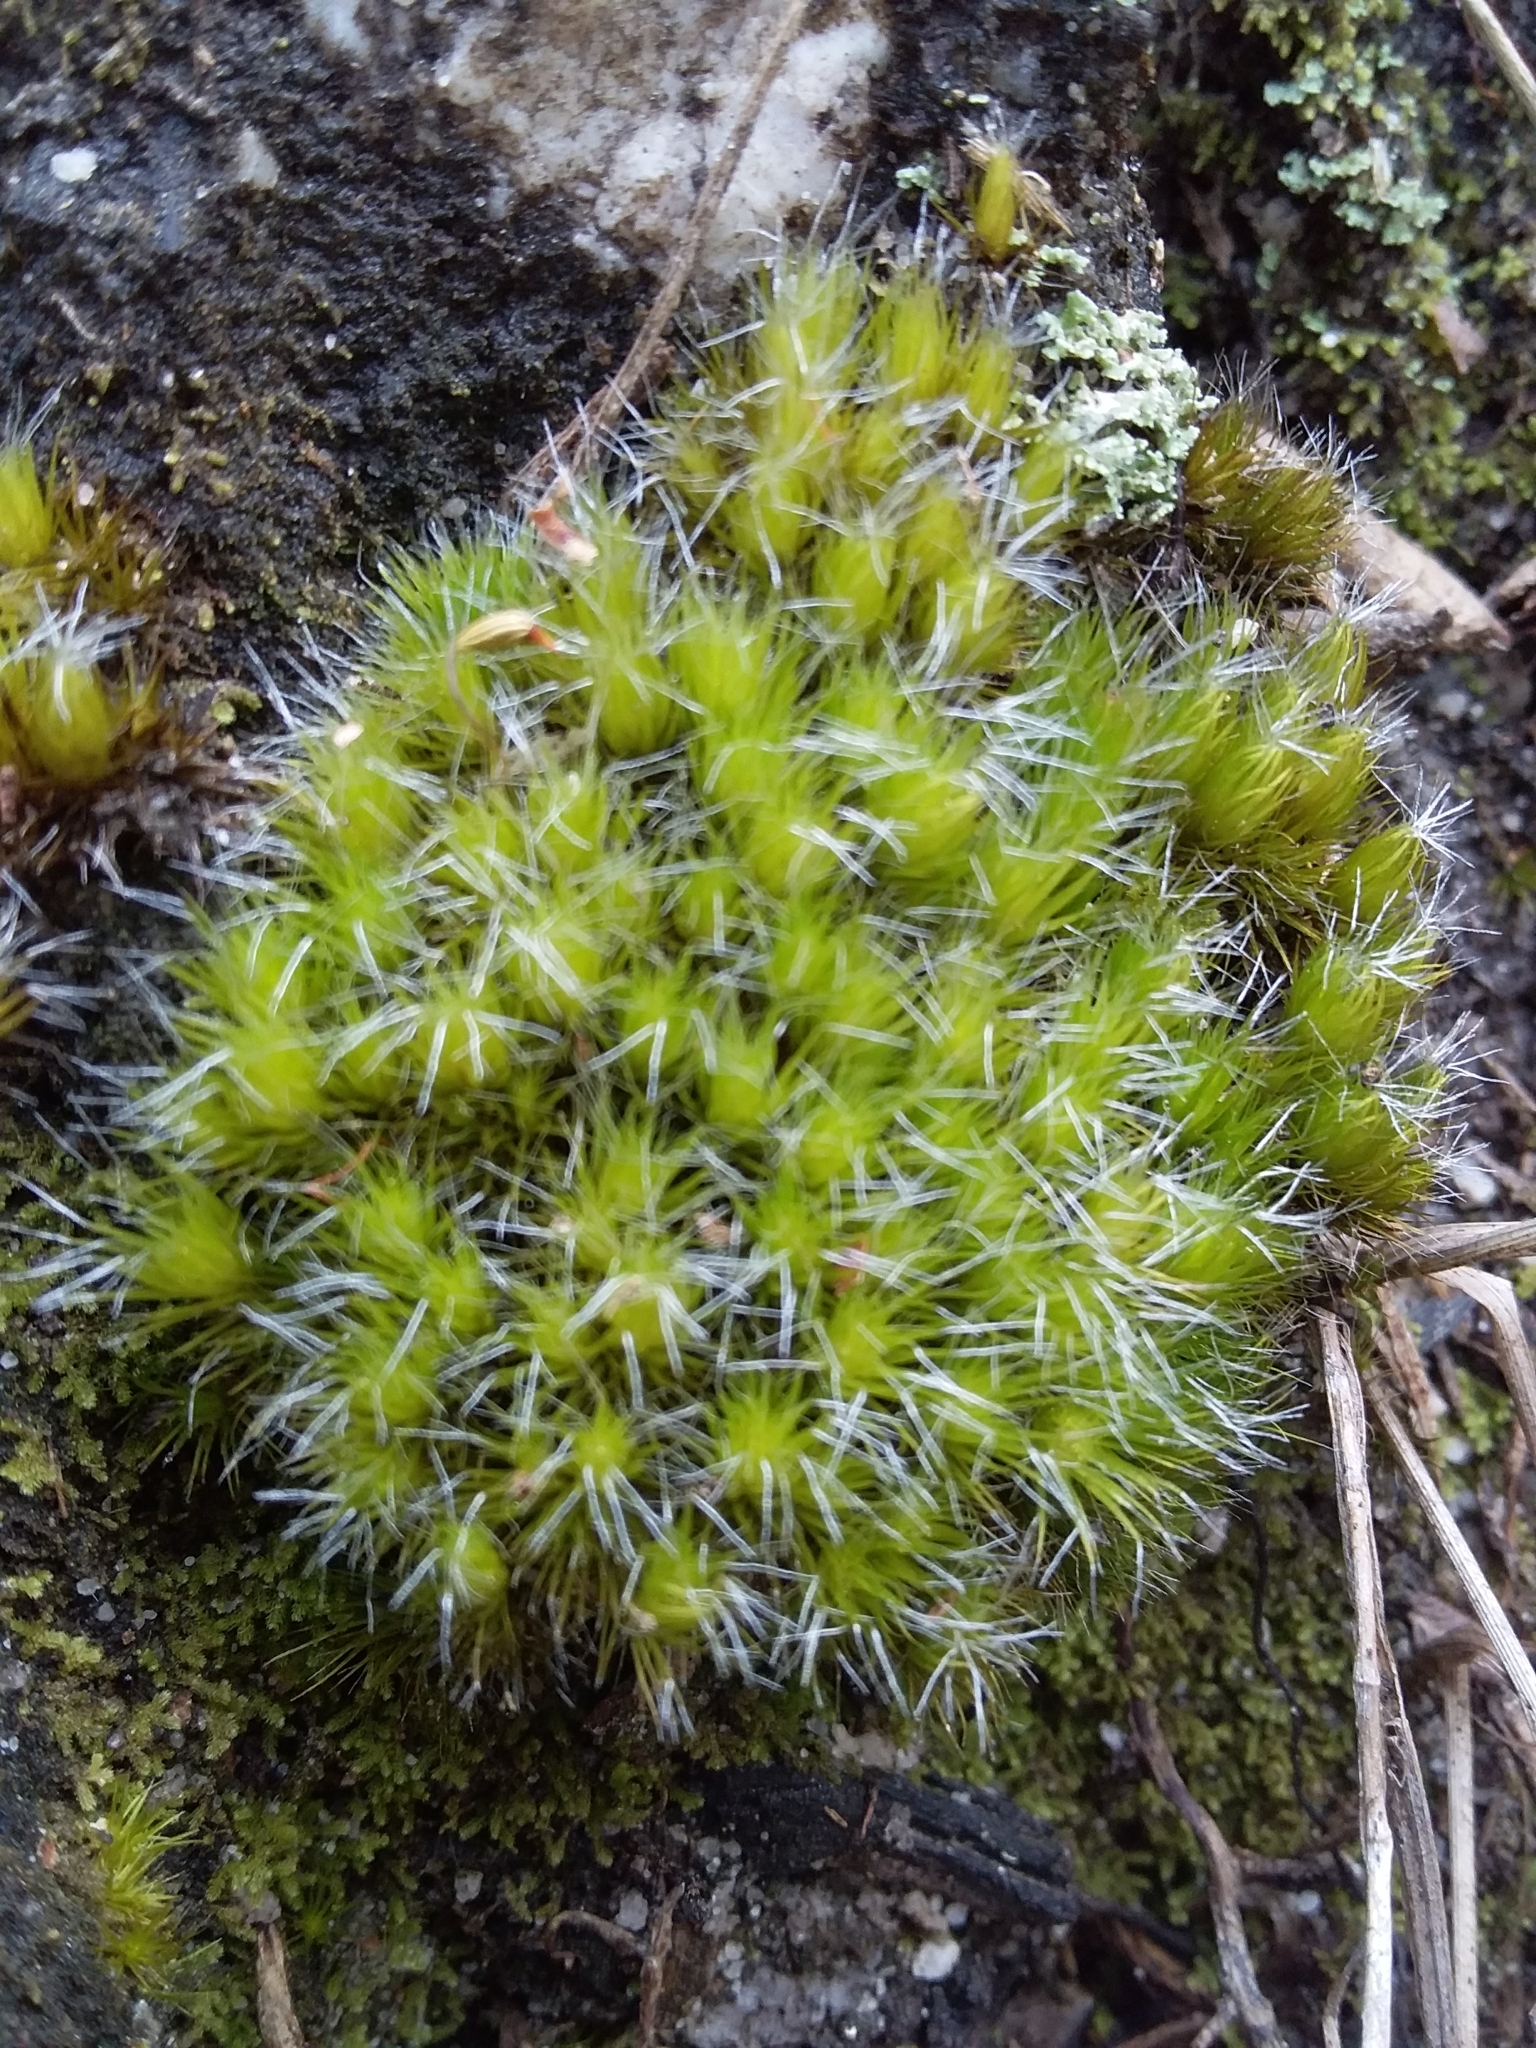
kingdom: Plantae
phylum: Bryophyta
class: Bryopsida
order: Dicranales
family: Leucobryaceae
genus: Campylopus
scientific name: Campylopus introflexus
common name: Heath star moss
